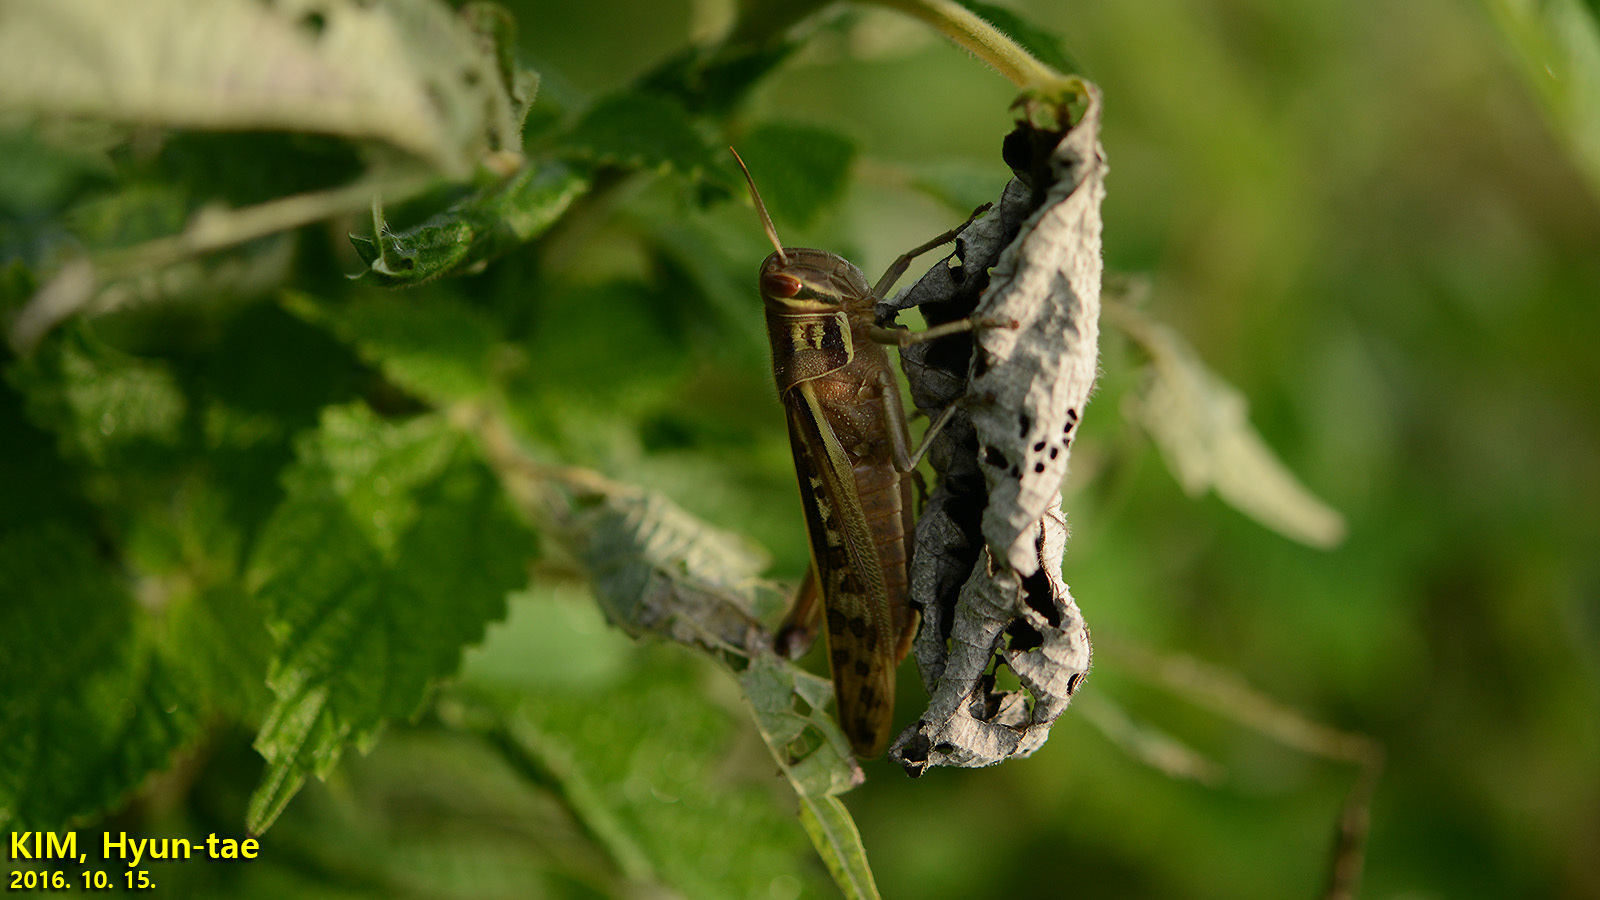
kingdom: Animalia
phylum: Arthropoda
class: Insecta
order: Orthoptera
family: Acrididae
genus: Patanga
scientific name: Patanga japonica
